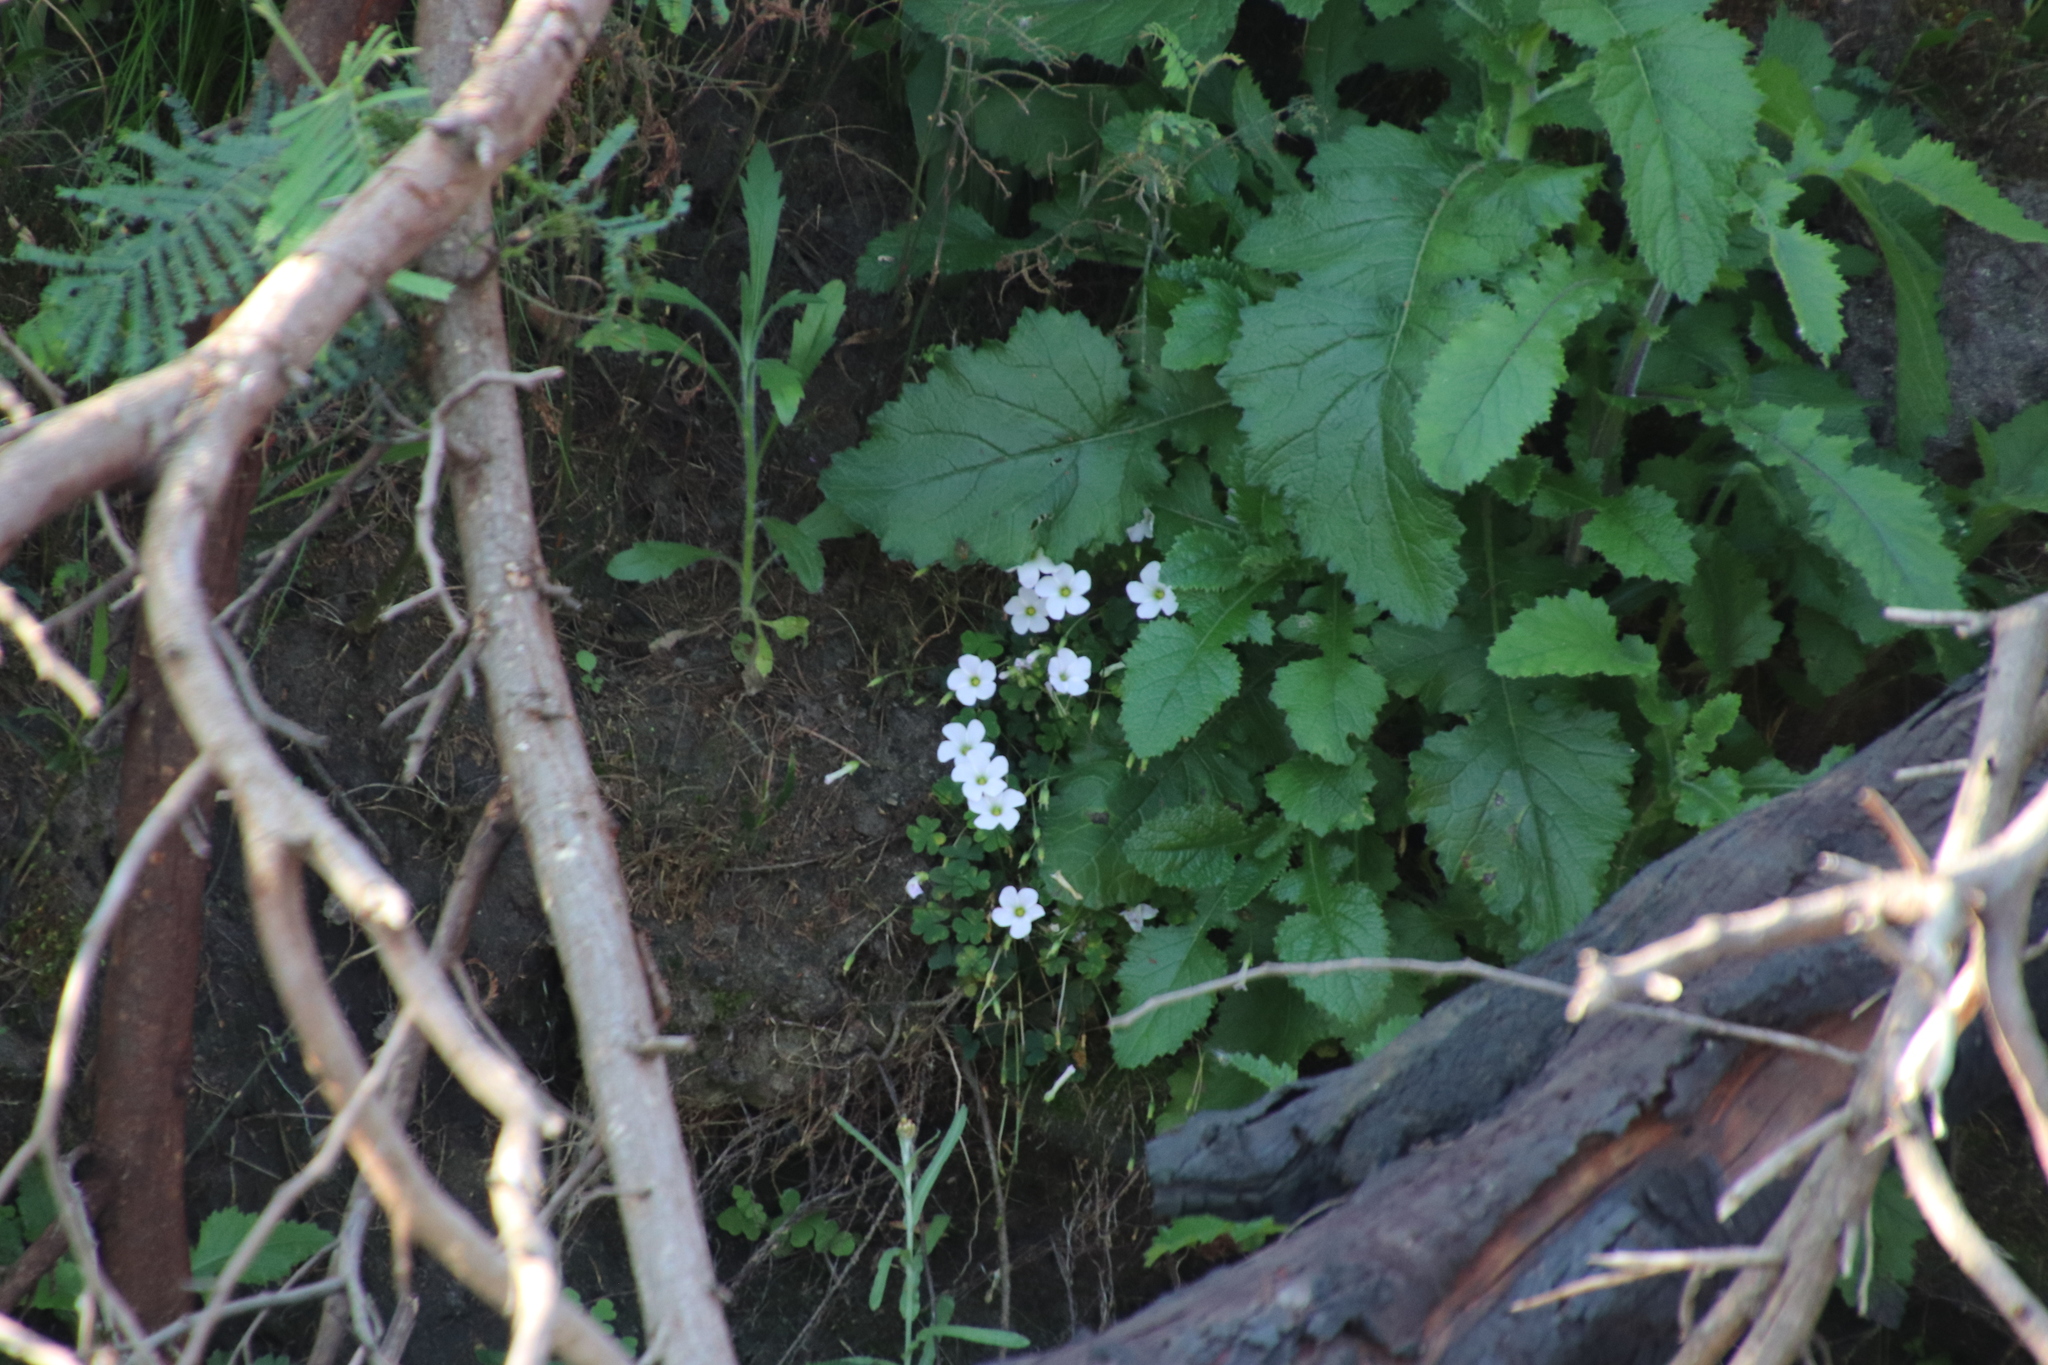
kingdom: Plantae
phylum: Tracheophyta
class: Magnoliopsida
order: Oxalidales
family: Oxalidaceae
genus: Oxalis
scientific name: Oxalis incarnata
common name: Pale pink-sorrel
